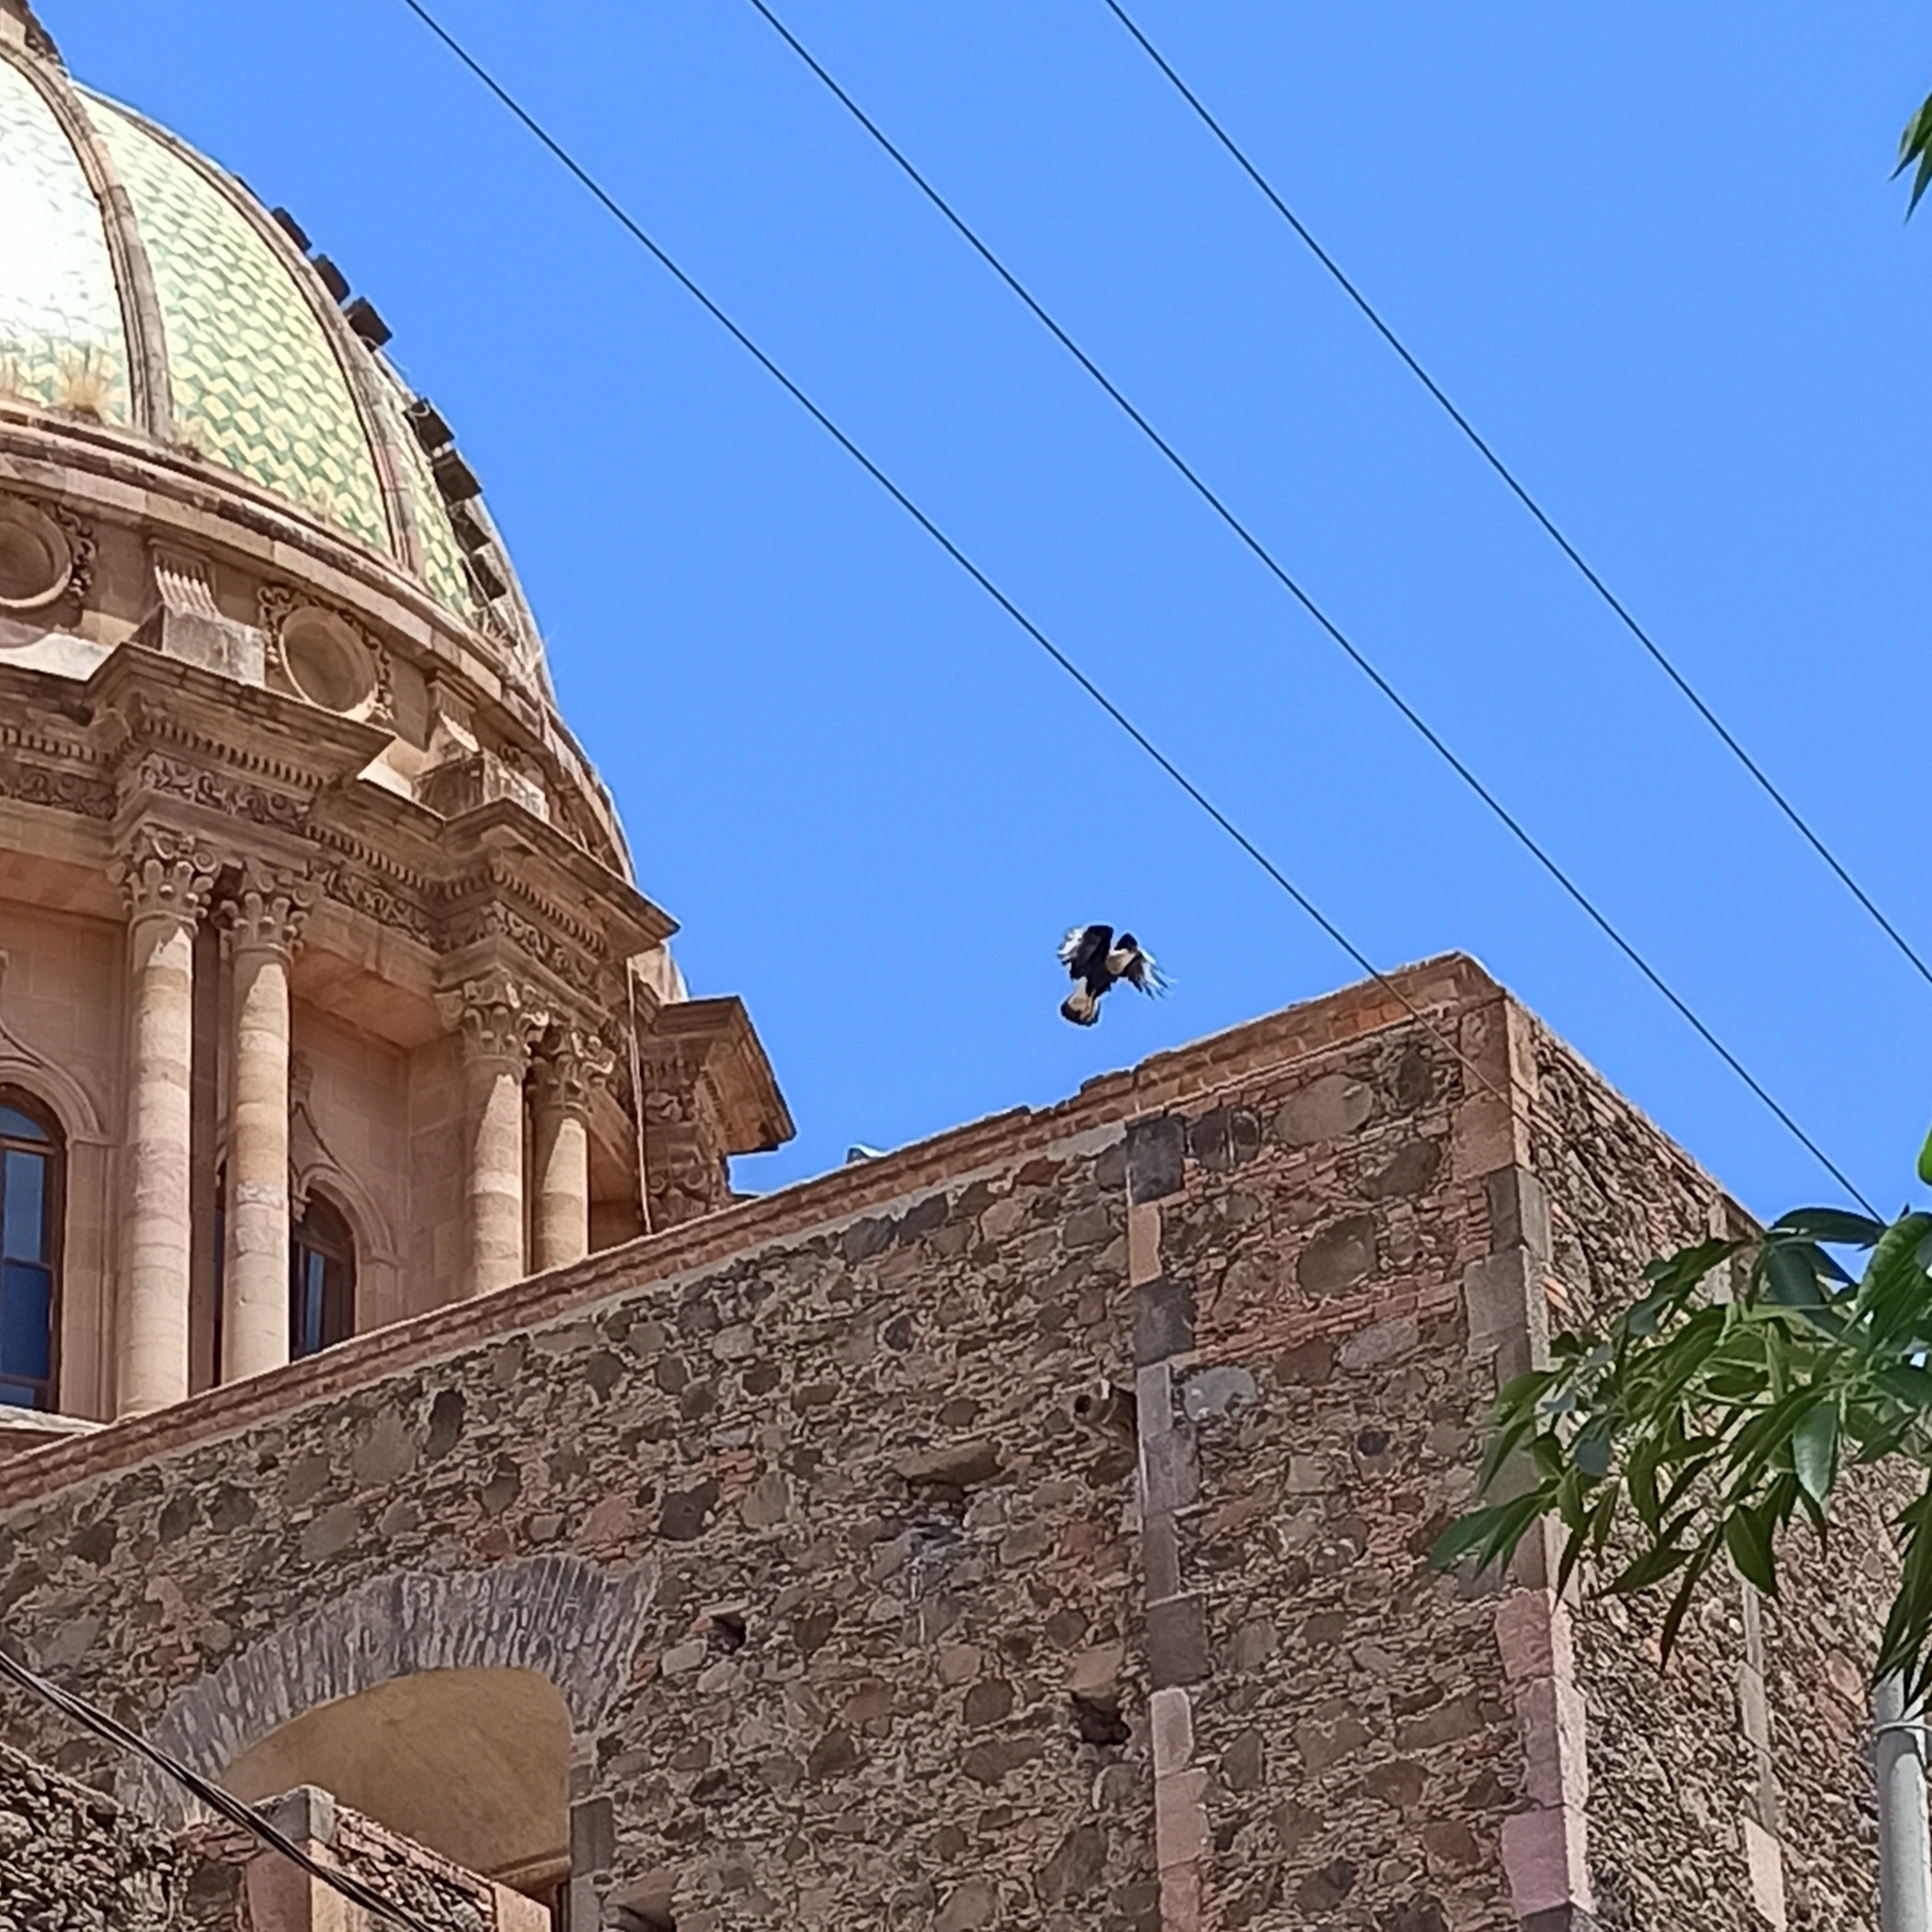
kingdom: Animalia
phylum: Chordata
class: Aves
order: Falconiformes
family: Falconidae
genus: Caracara
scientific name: Caracara plancus
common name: Southern caracara
